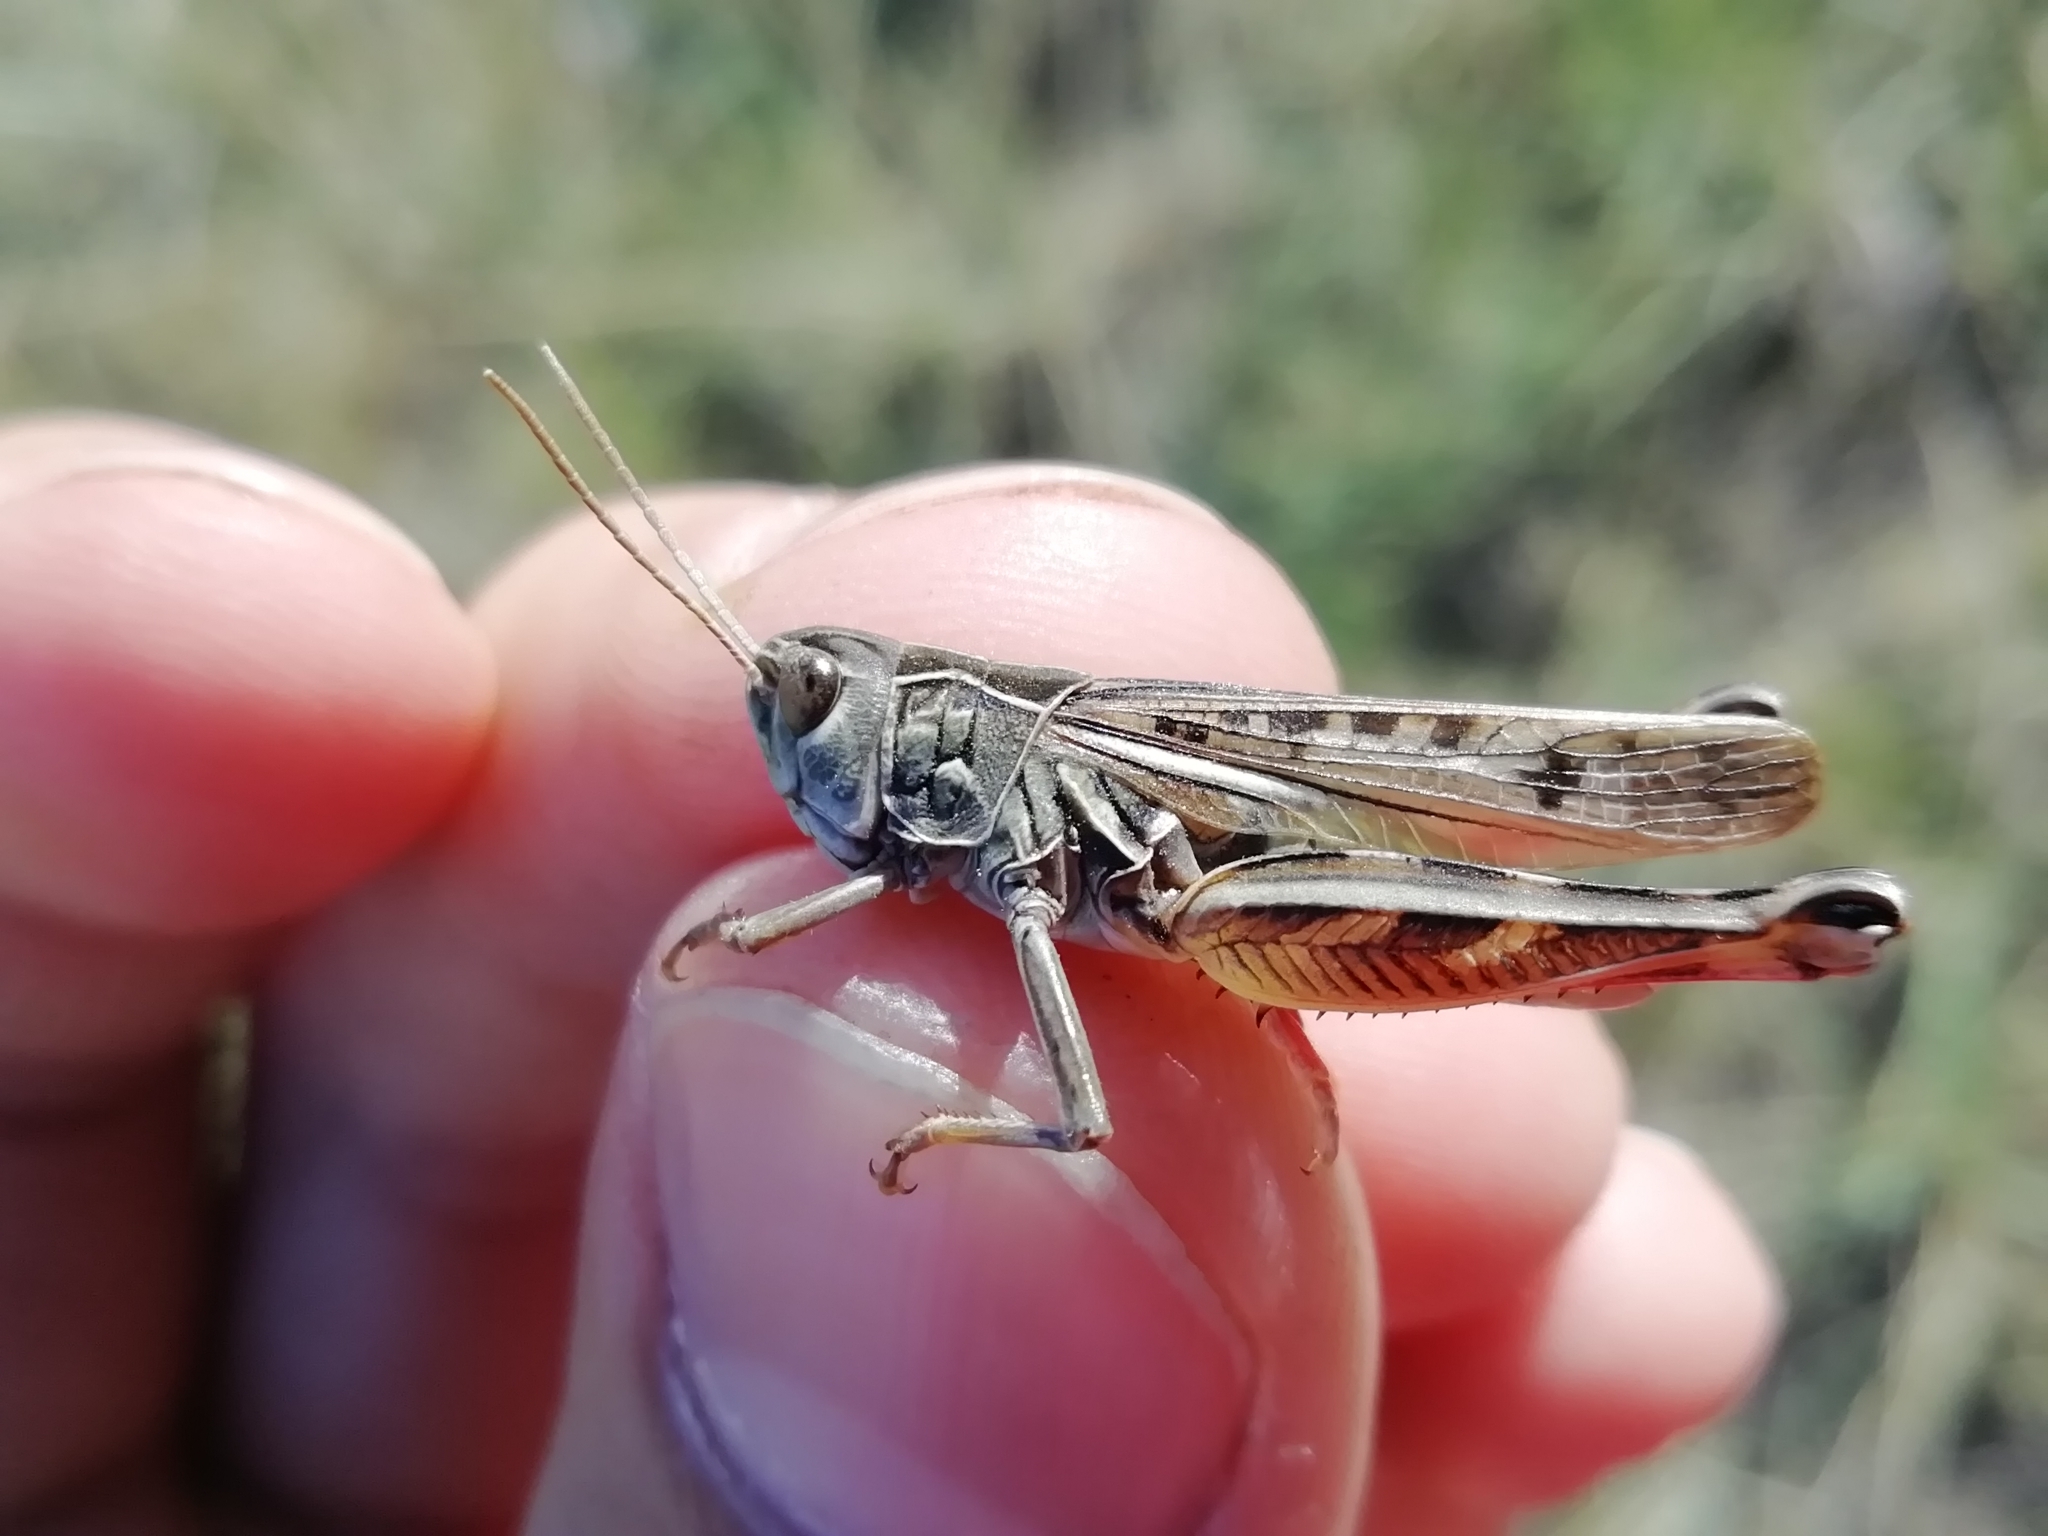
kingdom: Animalia
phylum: Arthropoda
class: Insecta
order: Orthoptera
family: Acrididae
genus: Arcyptera
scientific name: Arcyptera microptera
